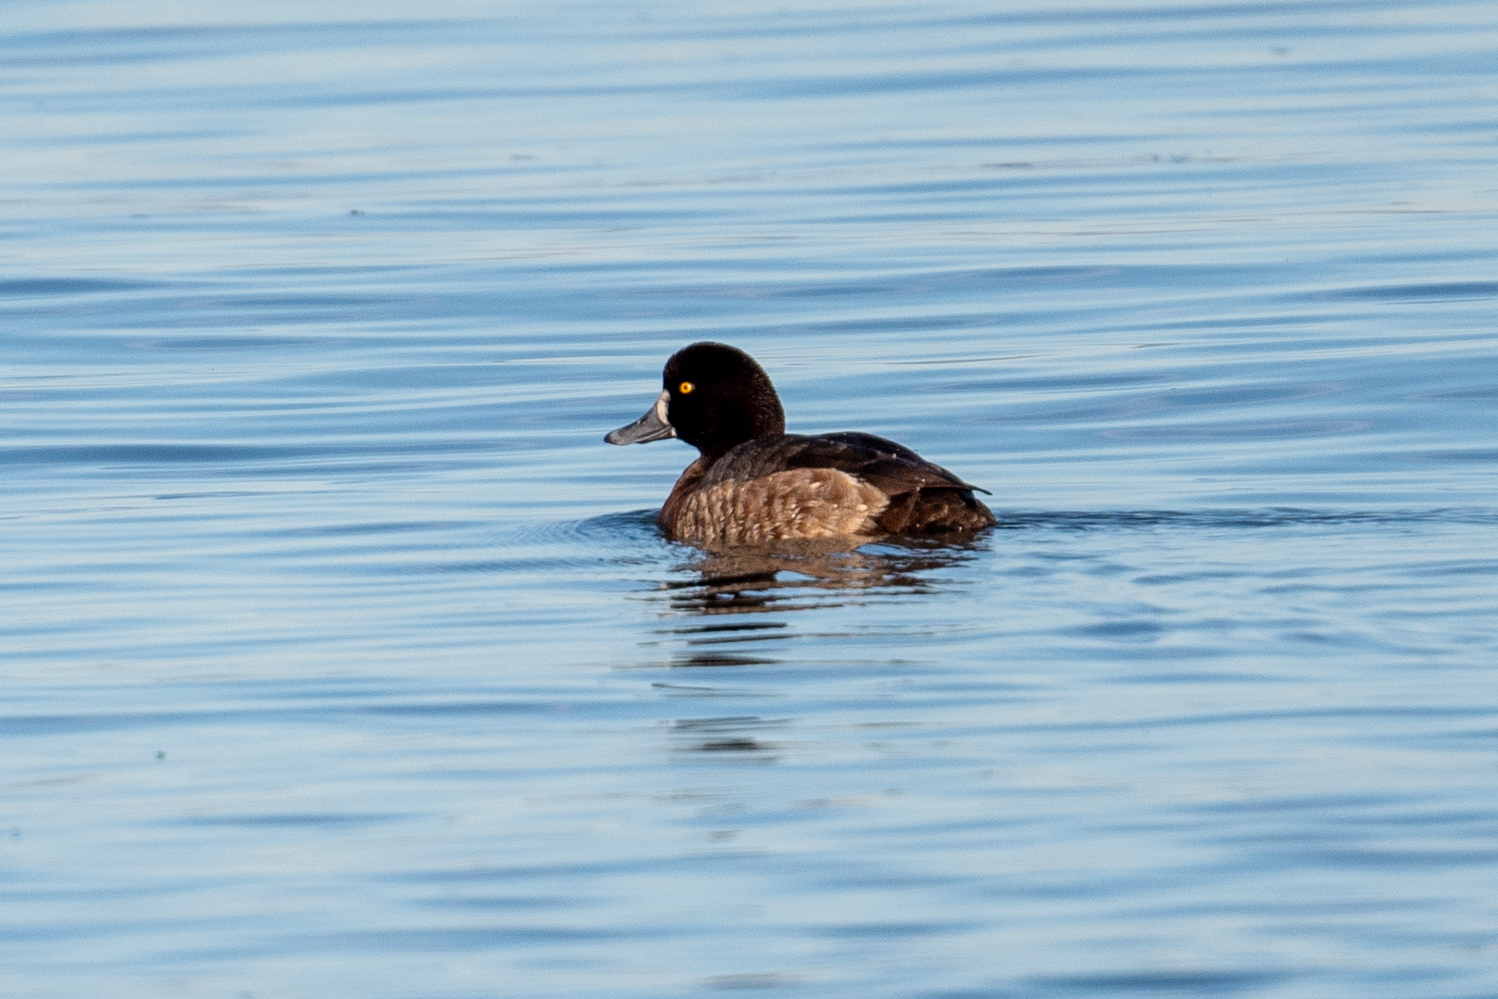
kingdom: Animalia
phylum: Chordata
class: Aves
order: Anseriformes
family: Anatidae
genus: Aythya
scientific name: Aythya marila
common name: Greater scaup
